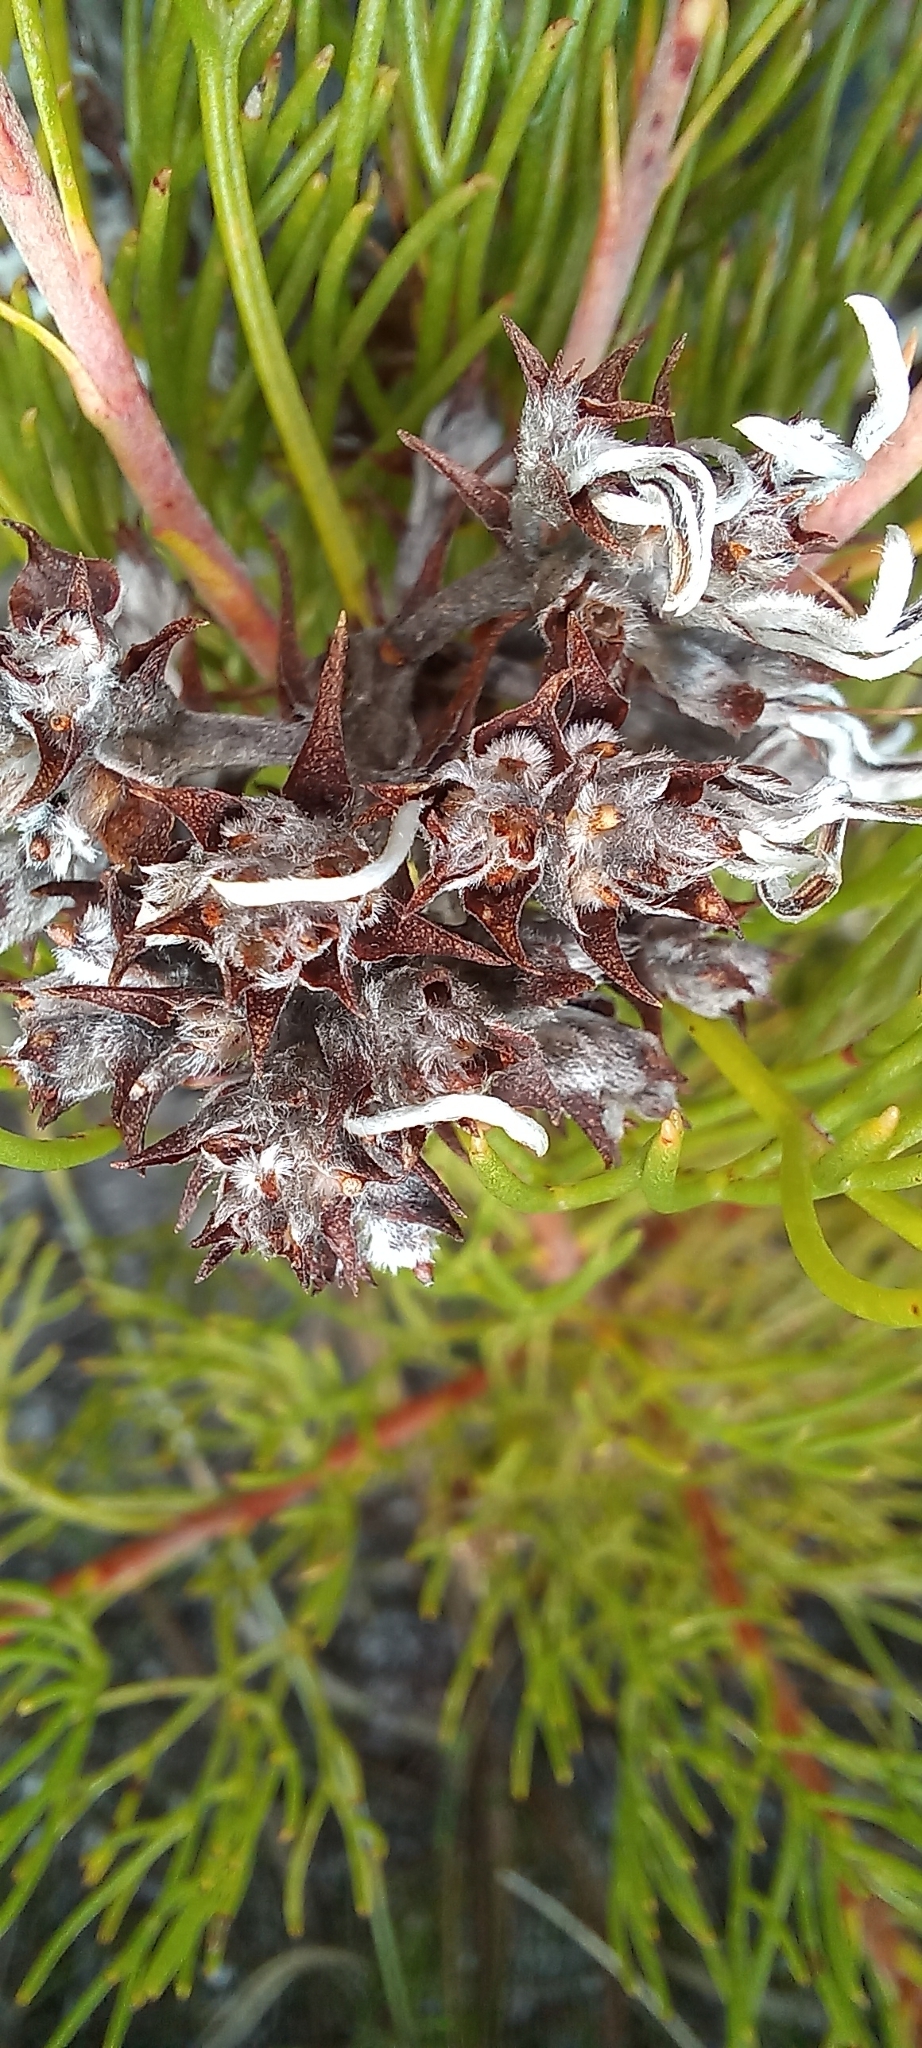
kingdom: Plantae
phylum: Tracheophyta
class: Magnoliopsida
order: Proteales
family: Proteaceae
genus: Serruria
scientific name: Serruria ascendens
